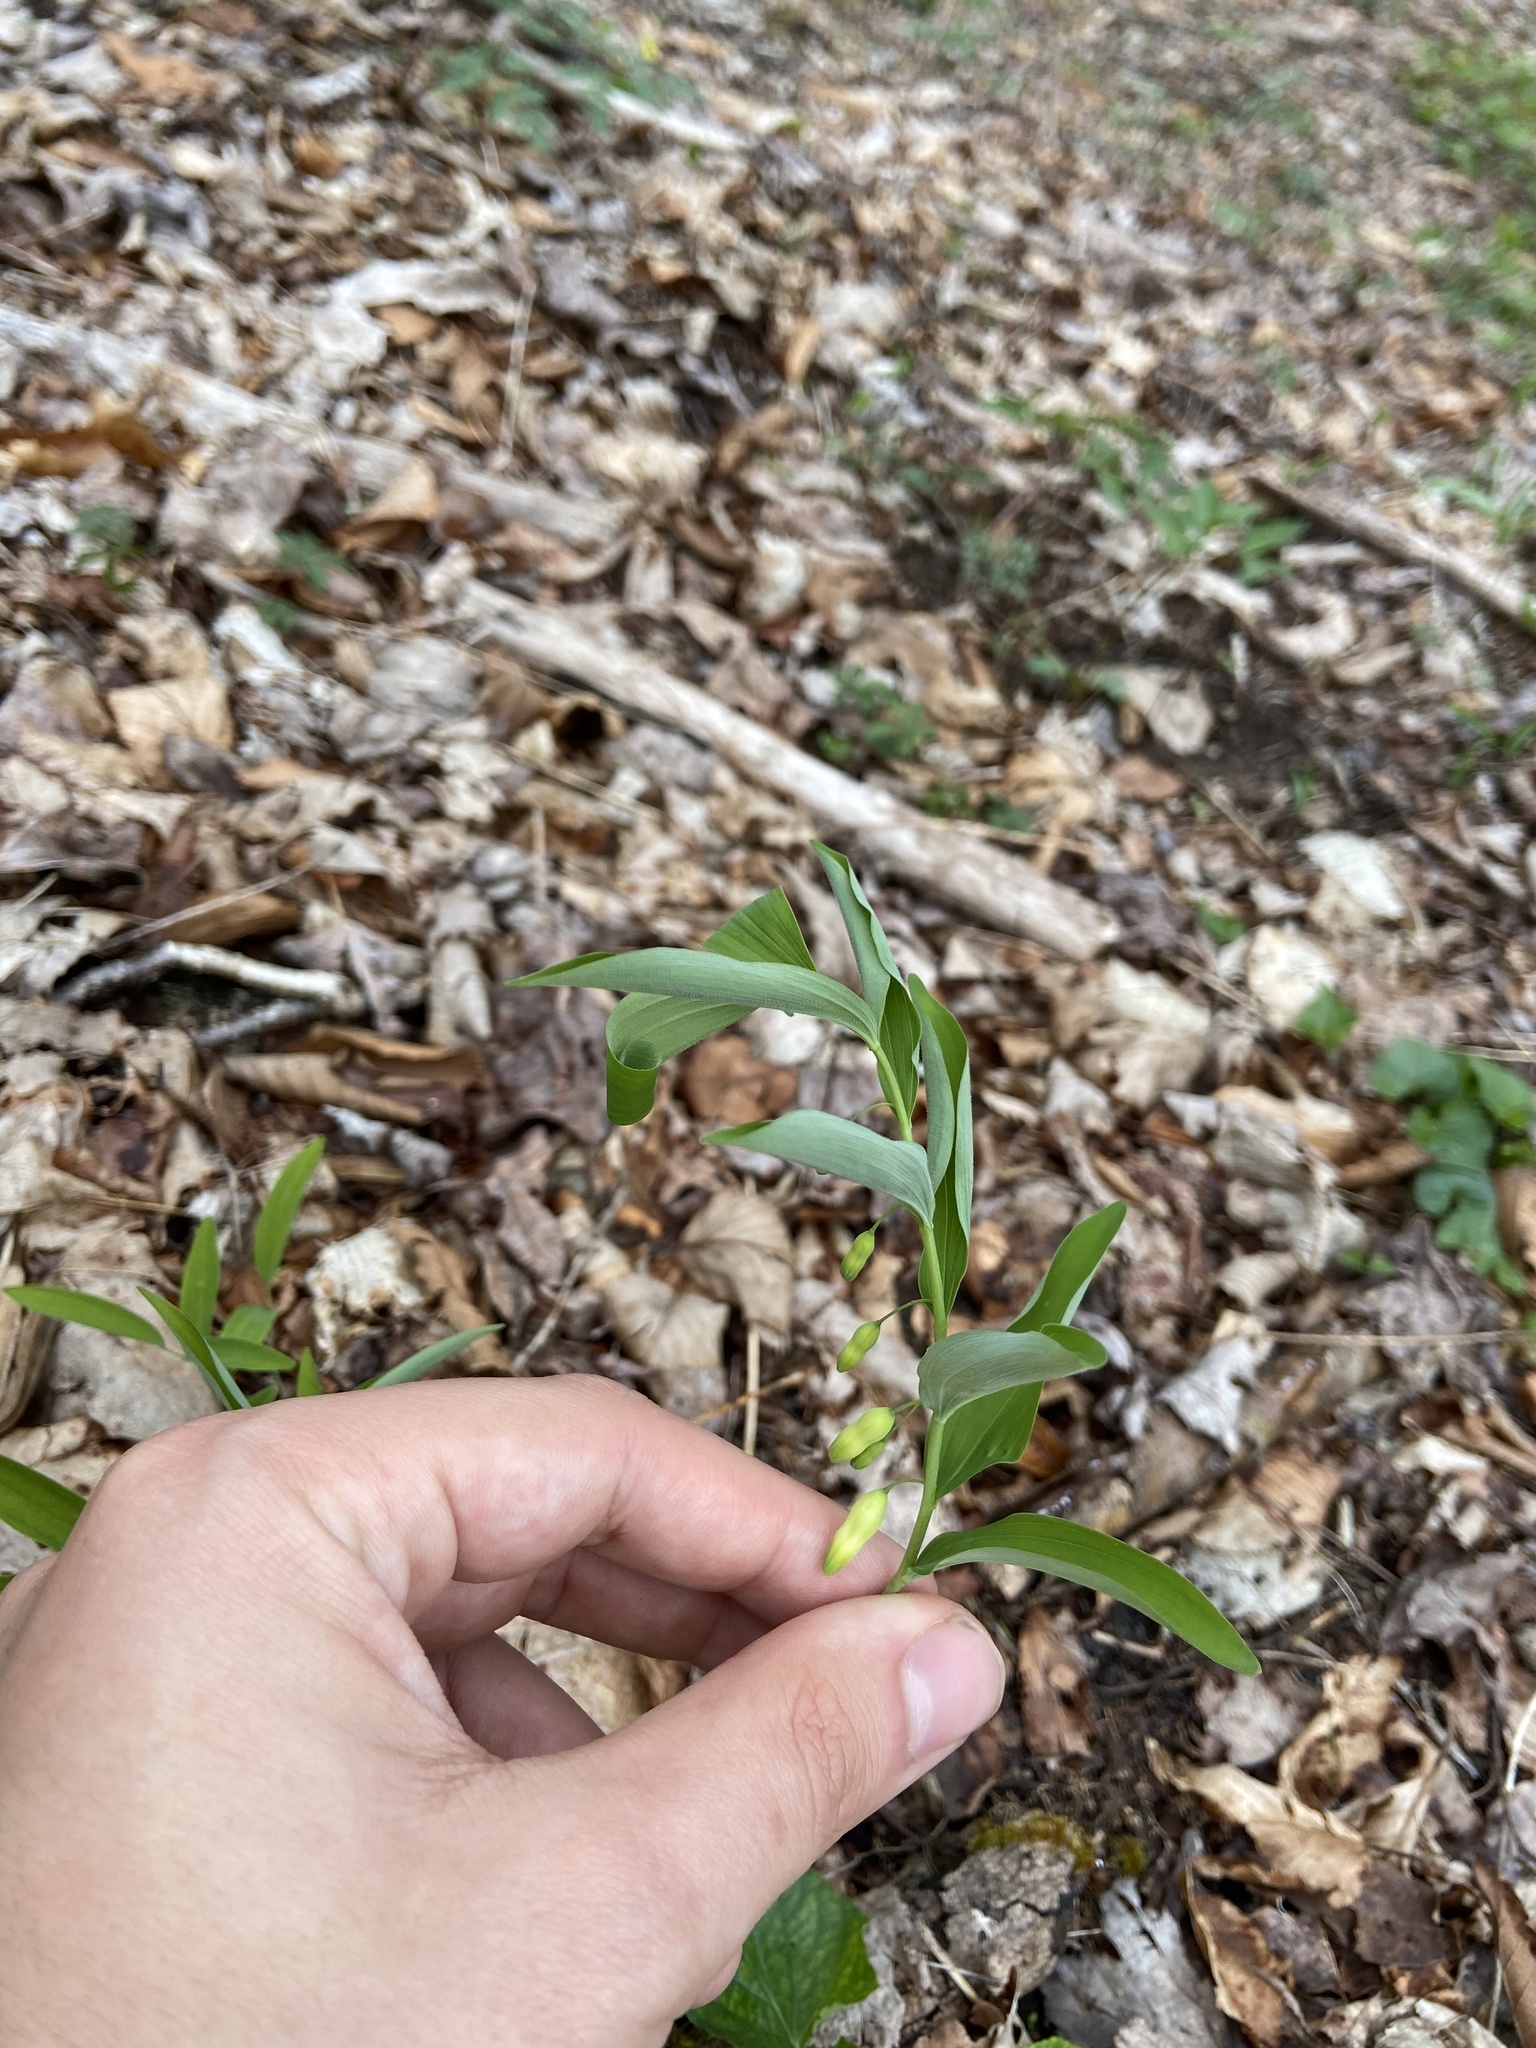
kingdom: Plantae
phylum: Tracheophyta
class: Liliopsida
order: Asparagales
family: Asparagaceae
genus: Polygonatum
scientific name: Polygonatum pubescens
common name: Downy solomon's seal
